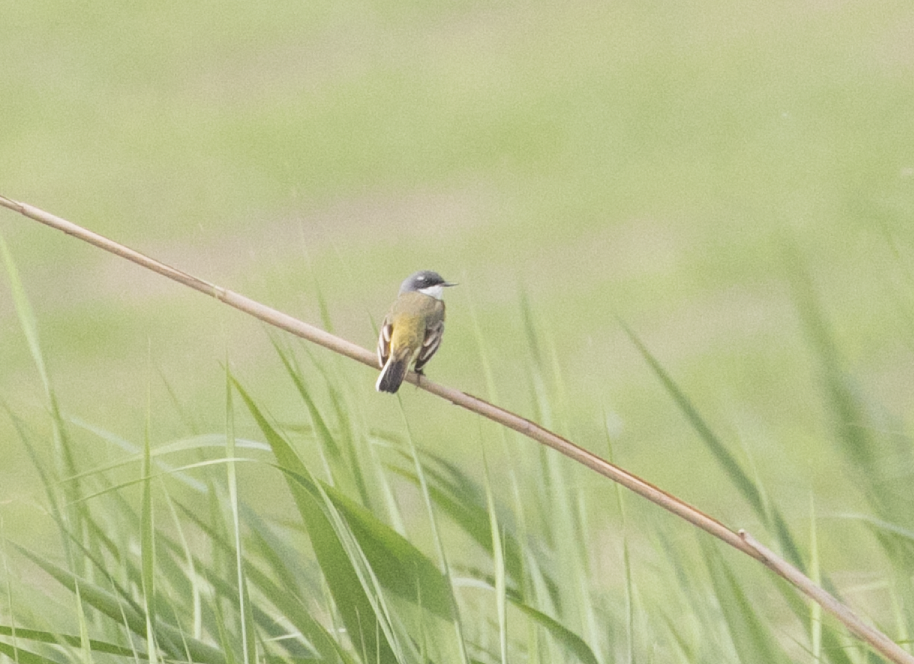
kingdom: Animalia
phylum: Chordata
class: Aves
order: Passeriformes
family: Motacillidae
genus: Motacilla
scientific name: Motacilla flava
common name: Western yellow wagtail
